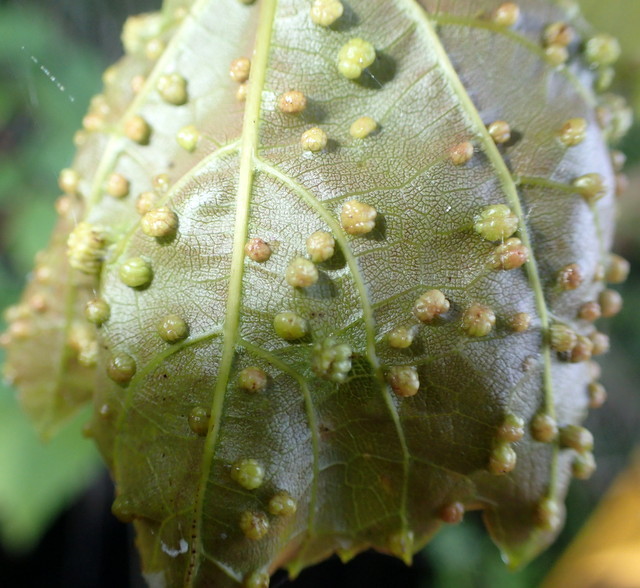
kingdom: Animalia
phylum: Arthropoda
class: Insecta
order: Hemiptera
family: Phylloxeridae
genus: Daktulosphaira
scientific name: Daktulosphaira vitifoliae
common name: Grape phylloxera
